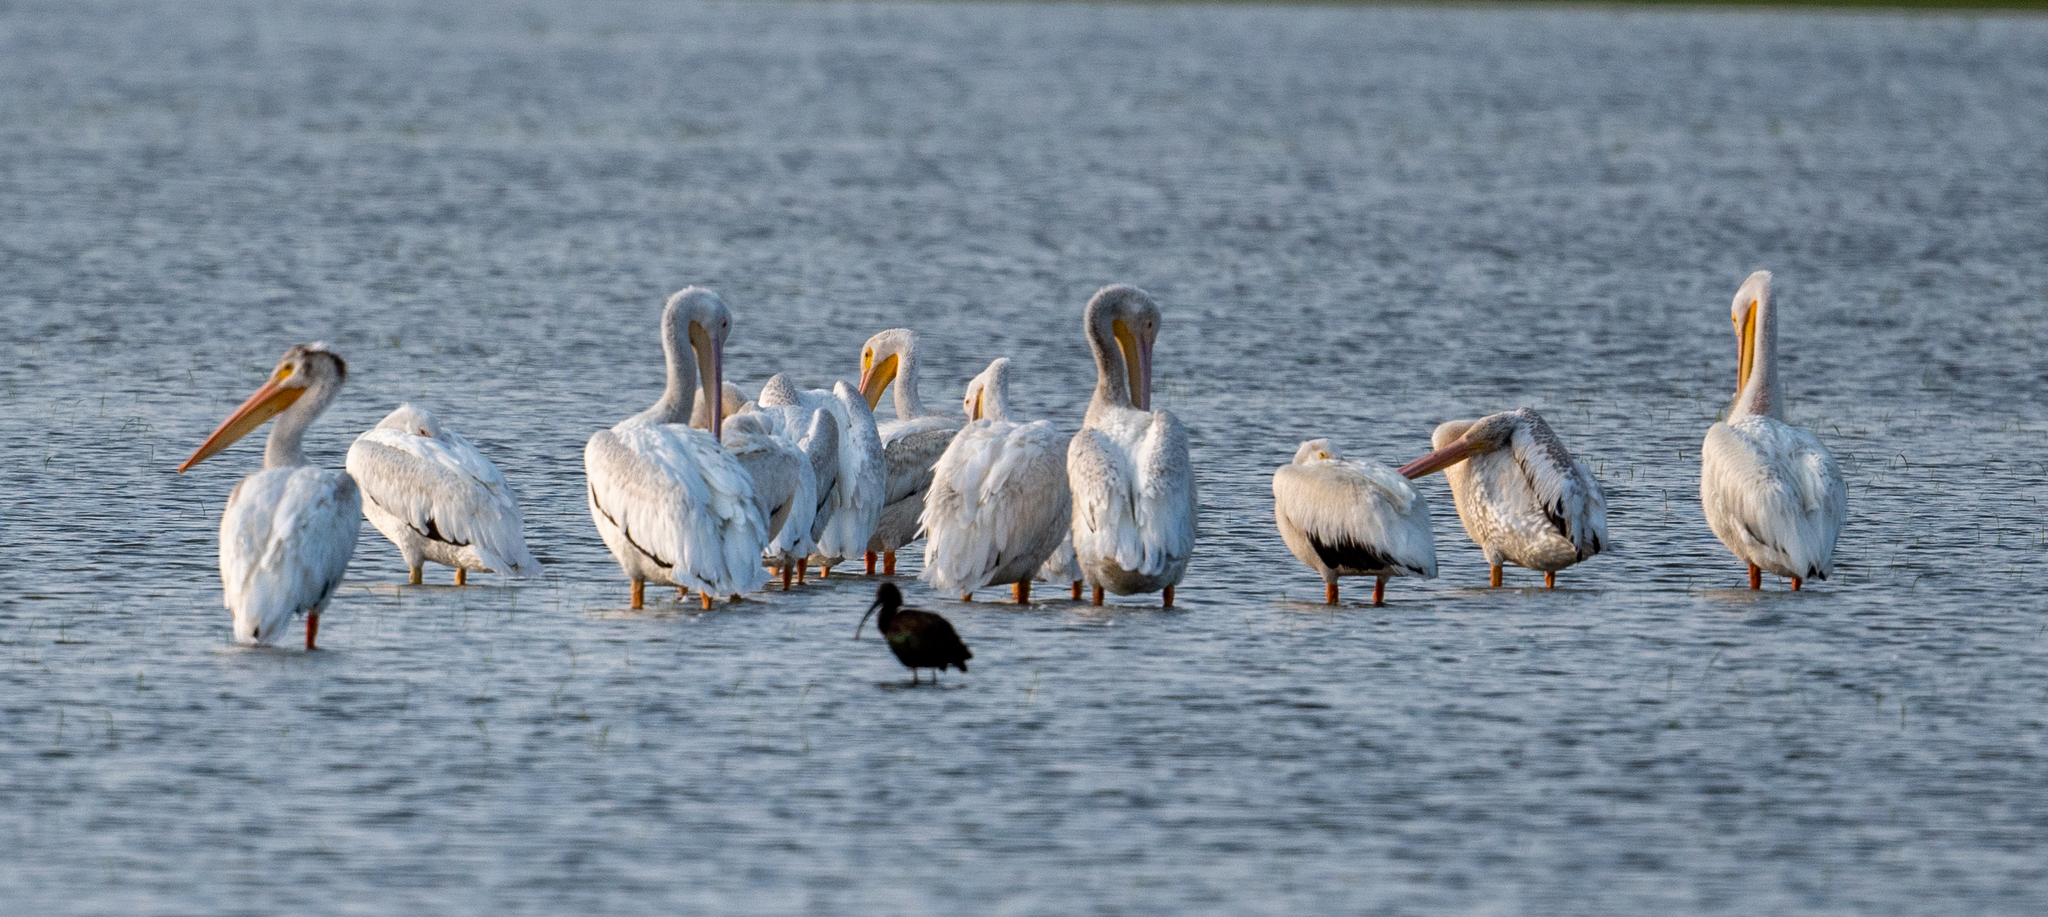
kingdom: Animalia
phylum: Chordata
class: Aves
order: Pelecaniformes
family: Pelecanidae
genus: Pelecanus
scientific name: Pelecanus erythrorhynchos
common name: American white pelican
